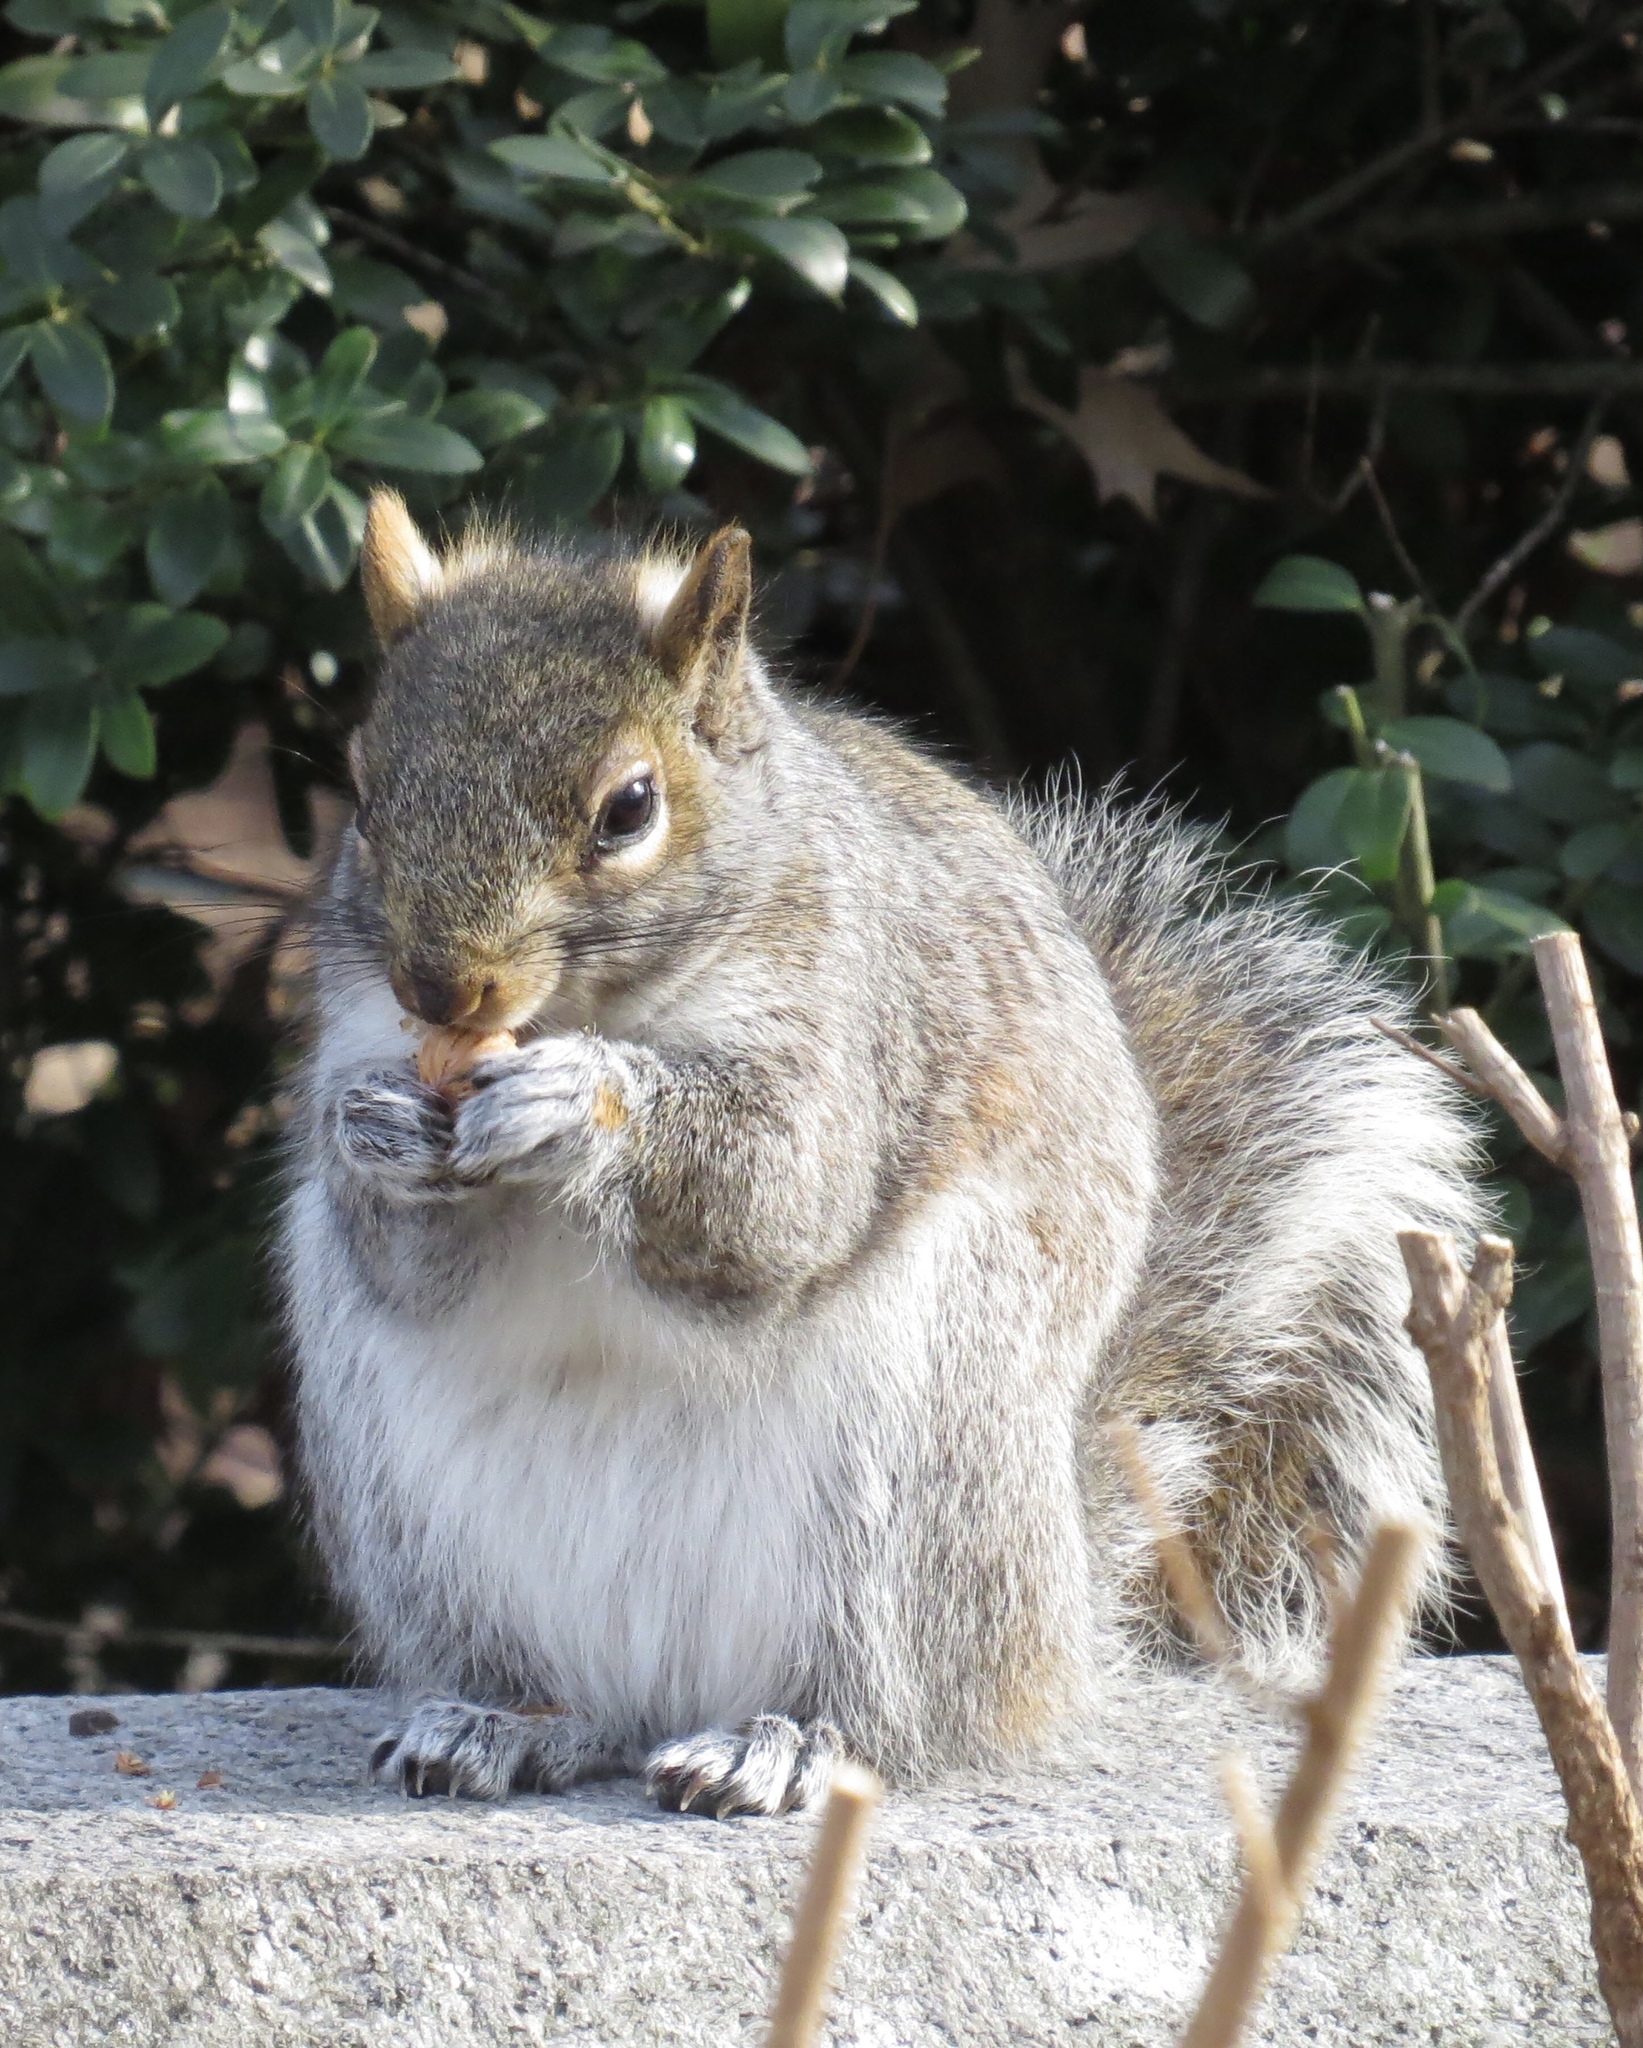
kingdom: Animalia
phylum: Chordata
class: Mammalia
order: Rodentia
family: Sciuridae
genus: Sciurus
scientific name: Sciurus carolinensis
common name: Eastern gray squirrel
